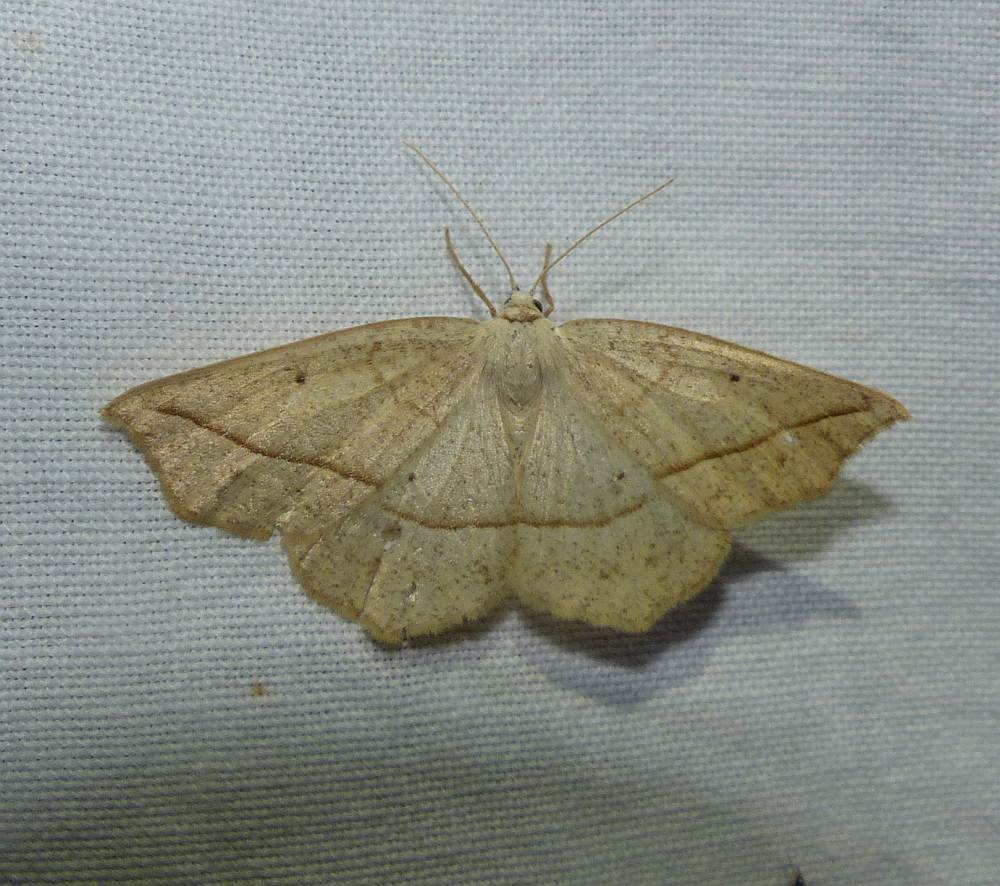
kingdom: Animalia
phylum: Arthropoda
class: Insecta
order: Lepidoptera
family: Geometridae
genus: Eusarca
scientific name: Eusarca confusaria
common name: Confused eusarca
